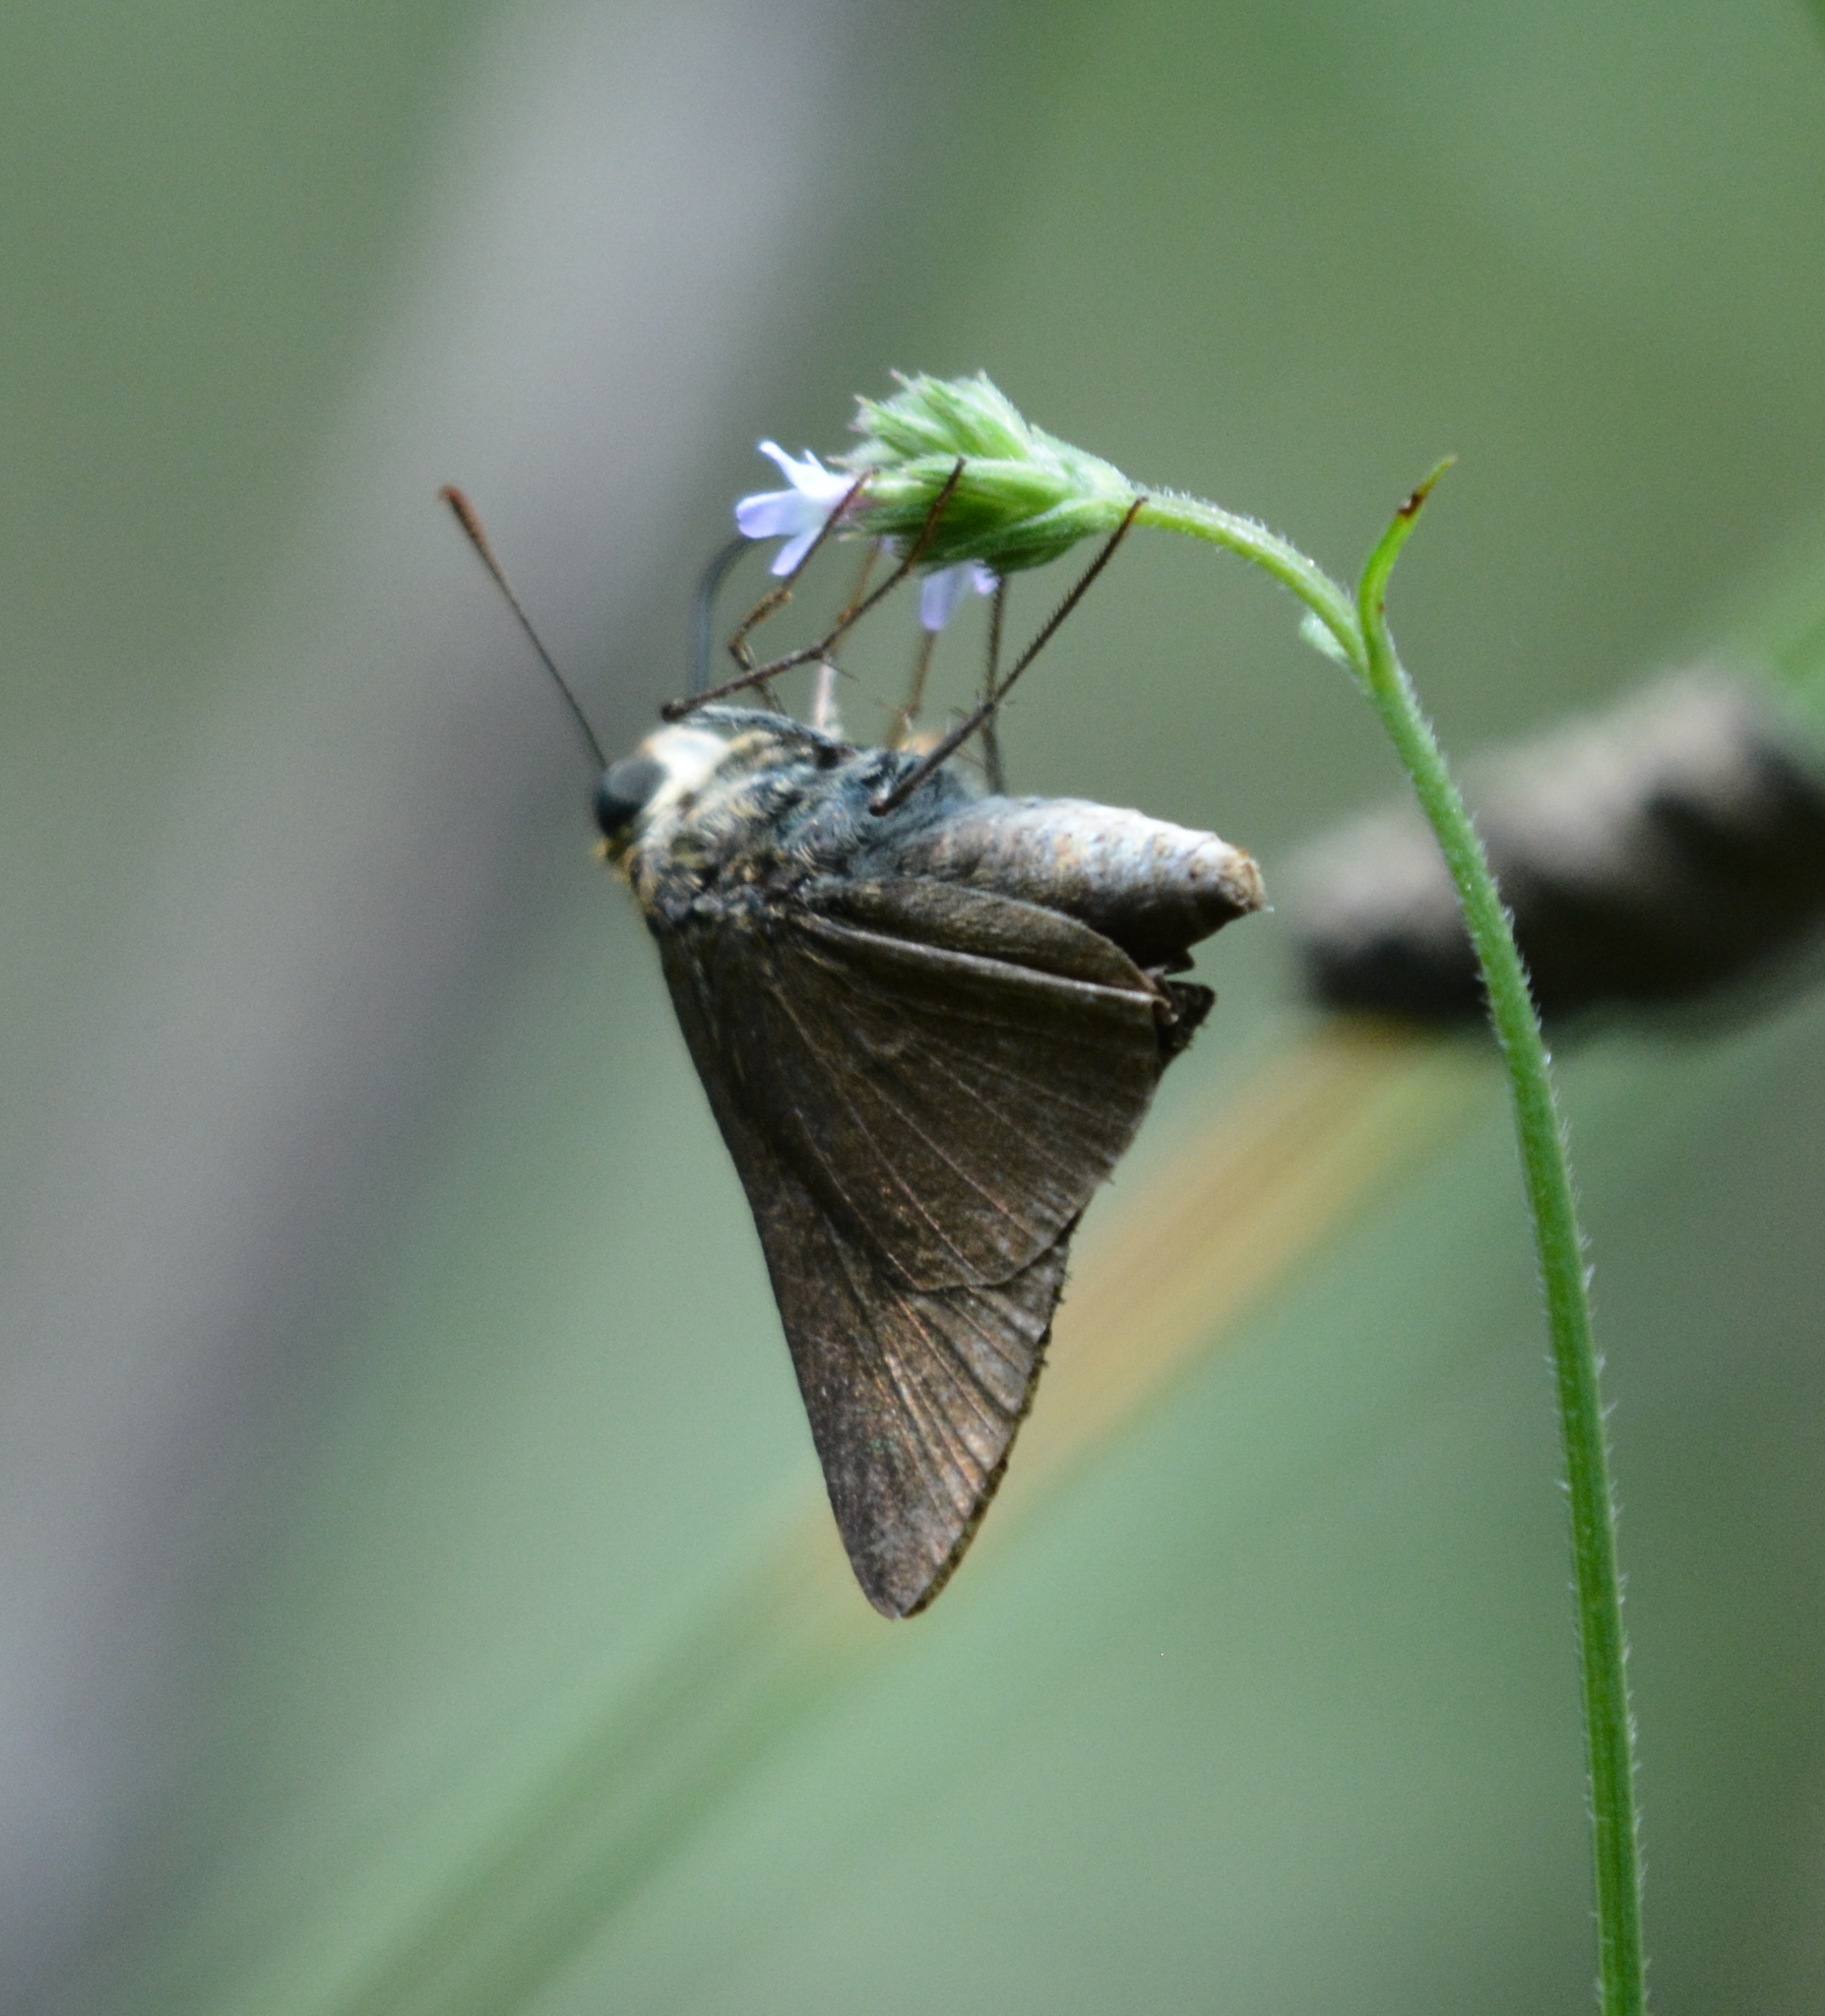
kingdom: Animalia
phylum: Arthropoda
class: Insecta
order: Lepidoptera
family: Hesperiidae
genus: Euphyes
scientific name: Euphyes vestris
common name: Dun skipper
